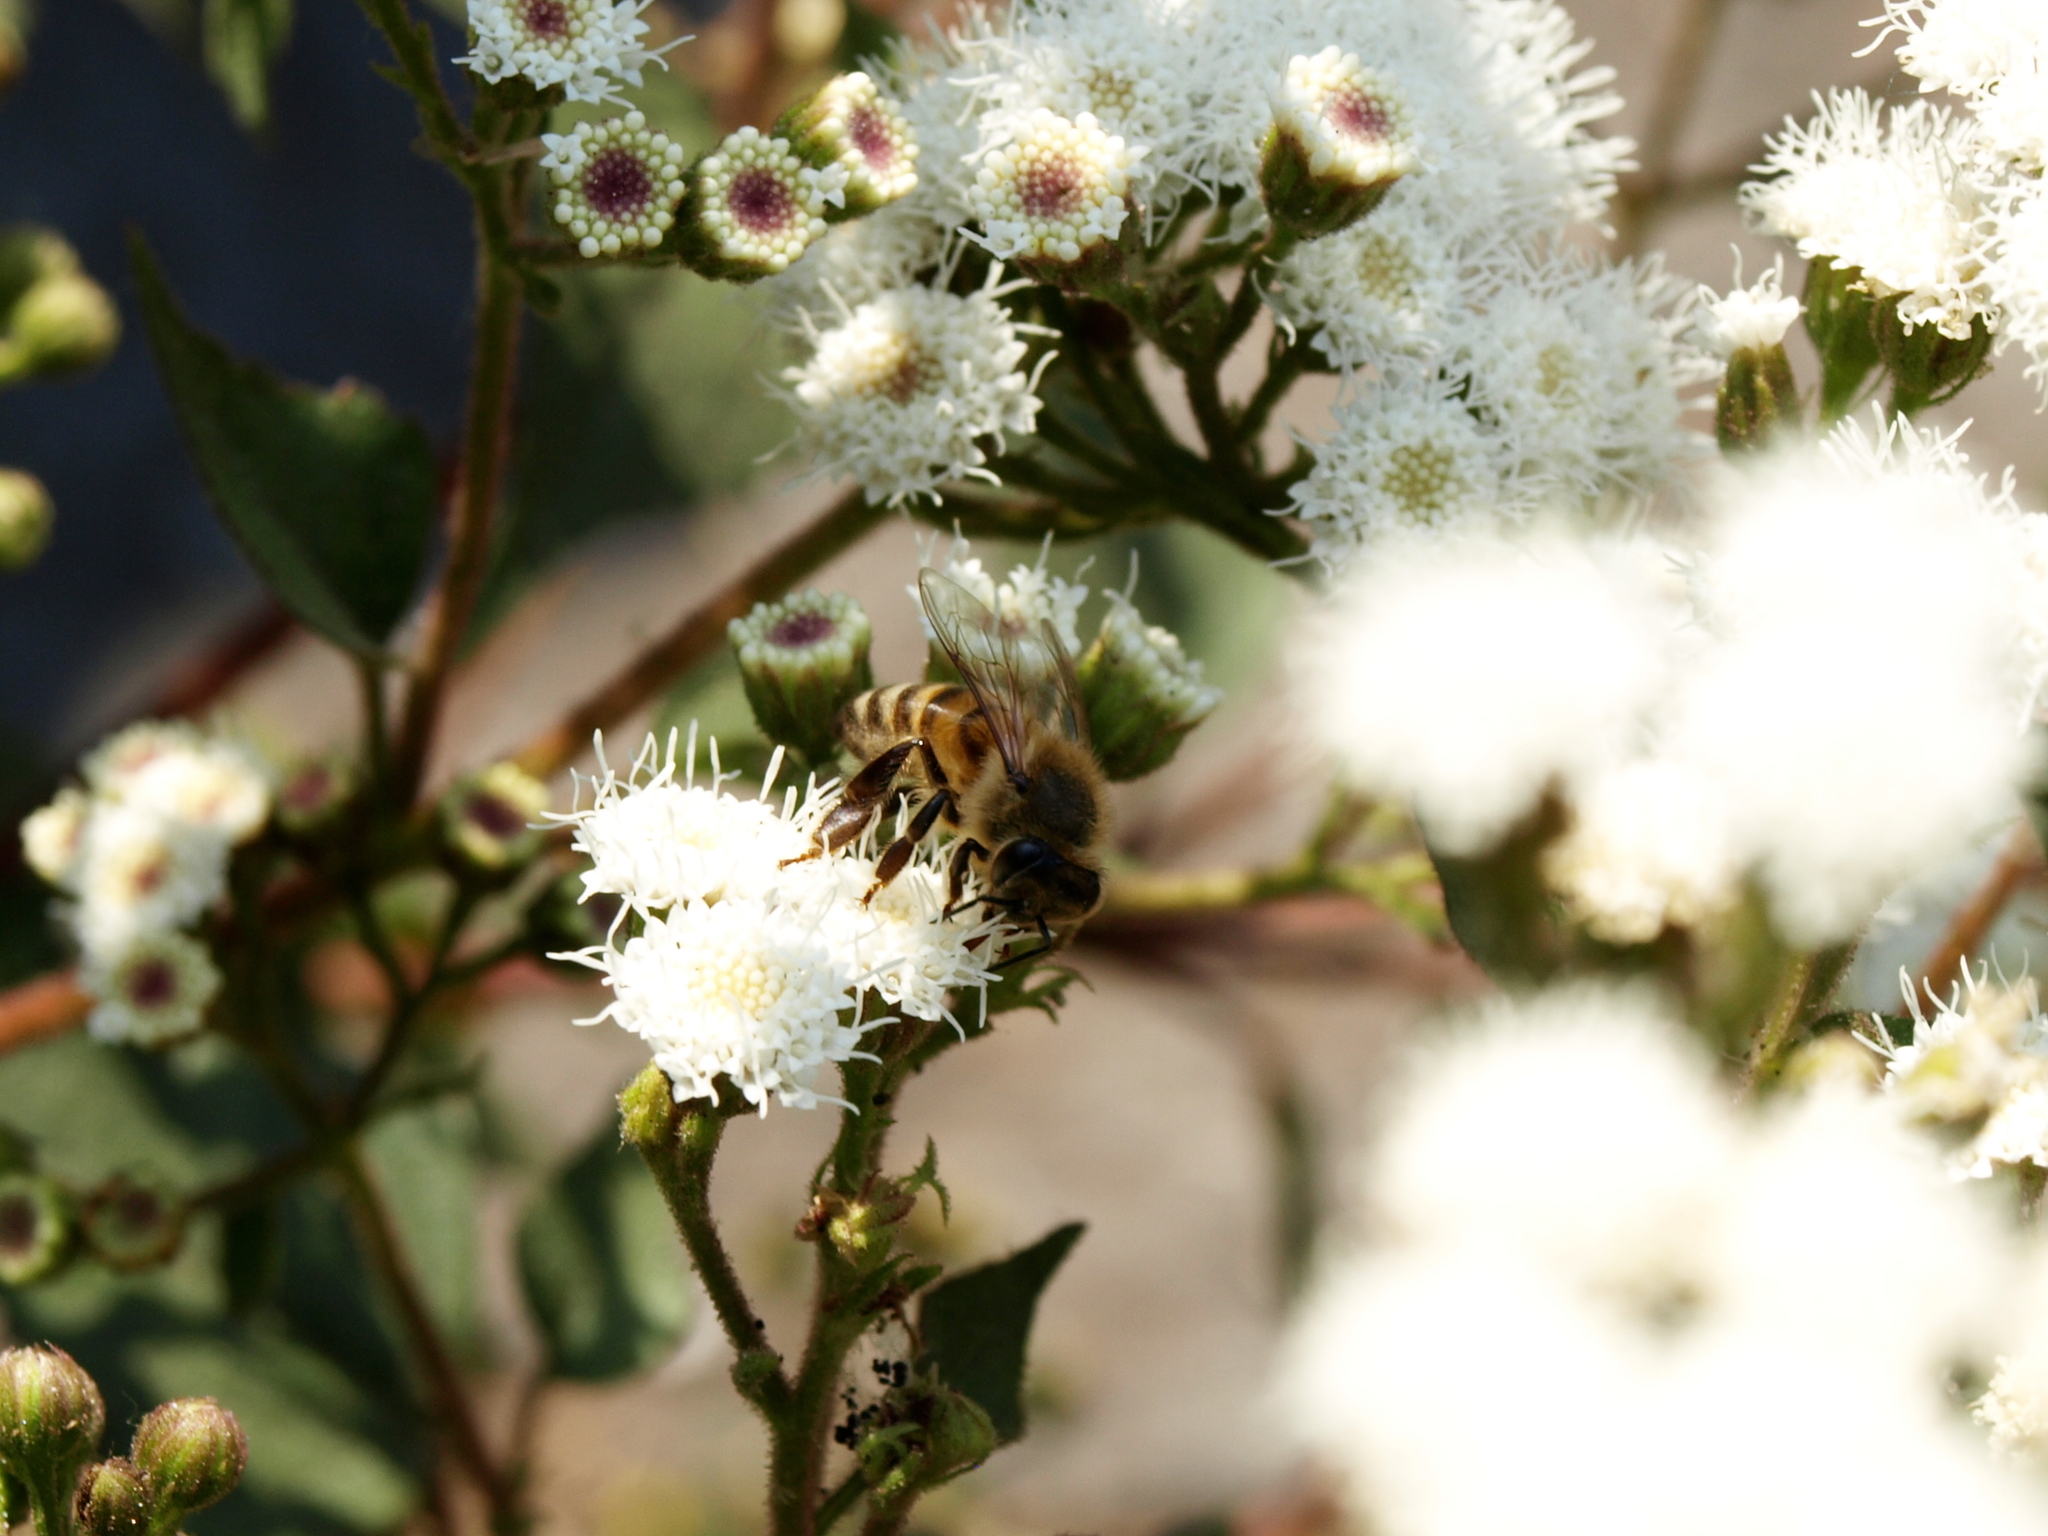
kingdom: Animalia
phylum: Arthropoda
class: Insecta
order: Hymenoptera
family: Apidae
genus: Apis
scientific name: Apis mellifera
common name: Honey bee
